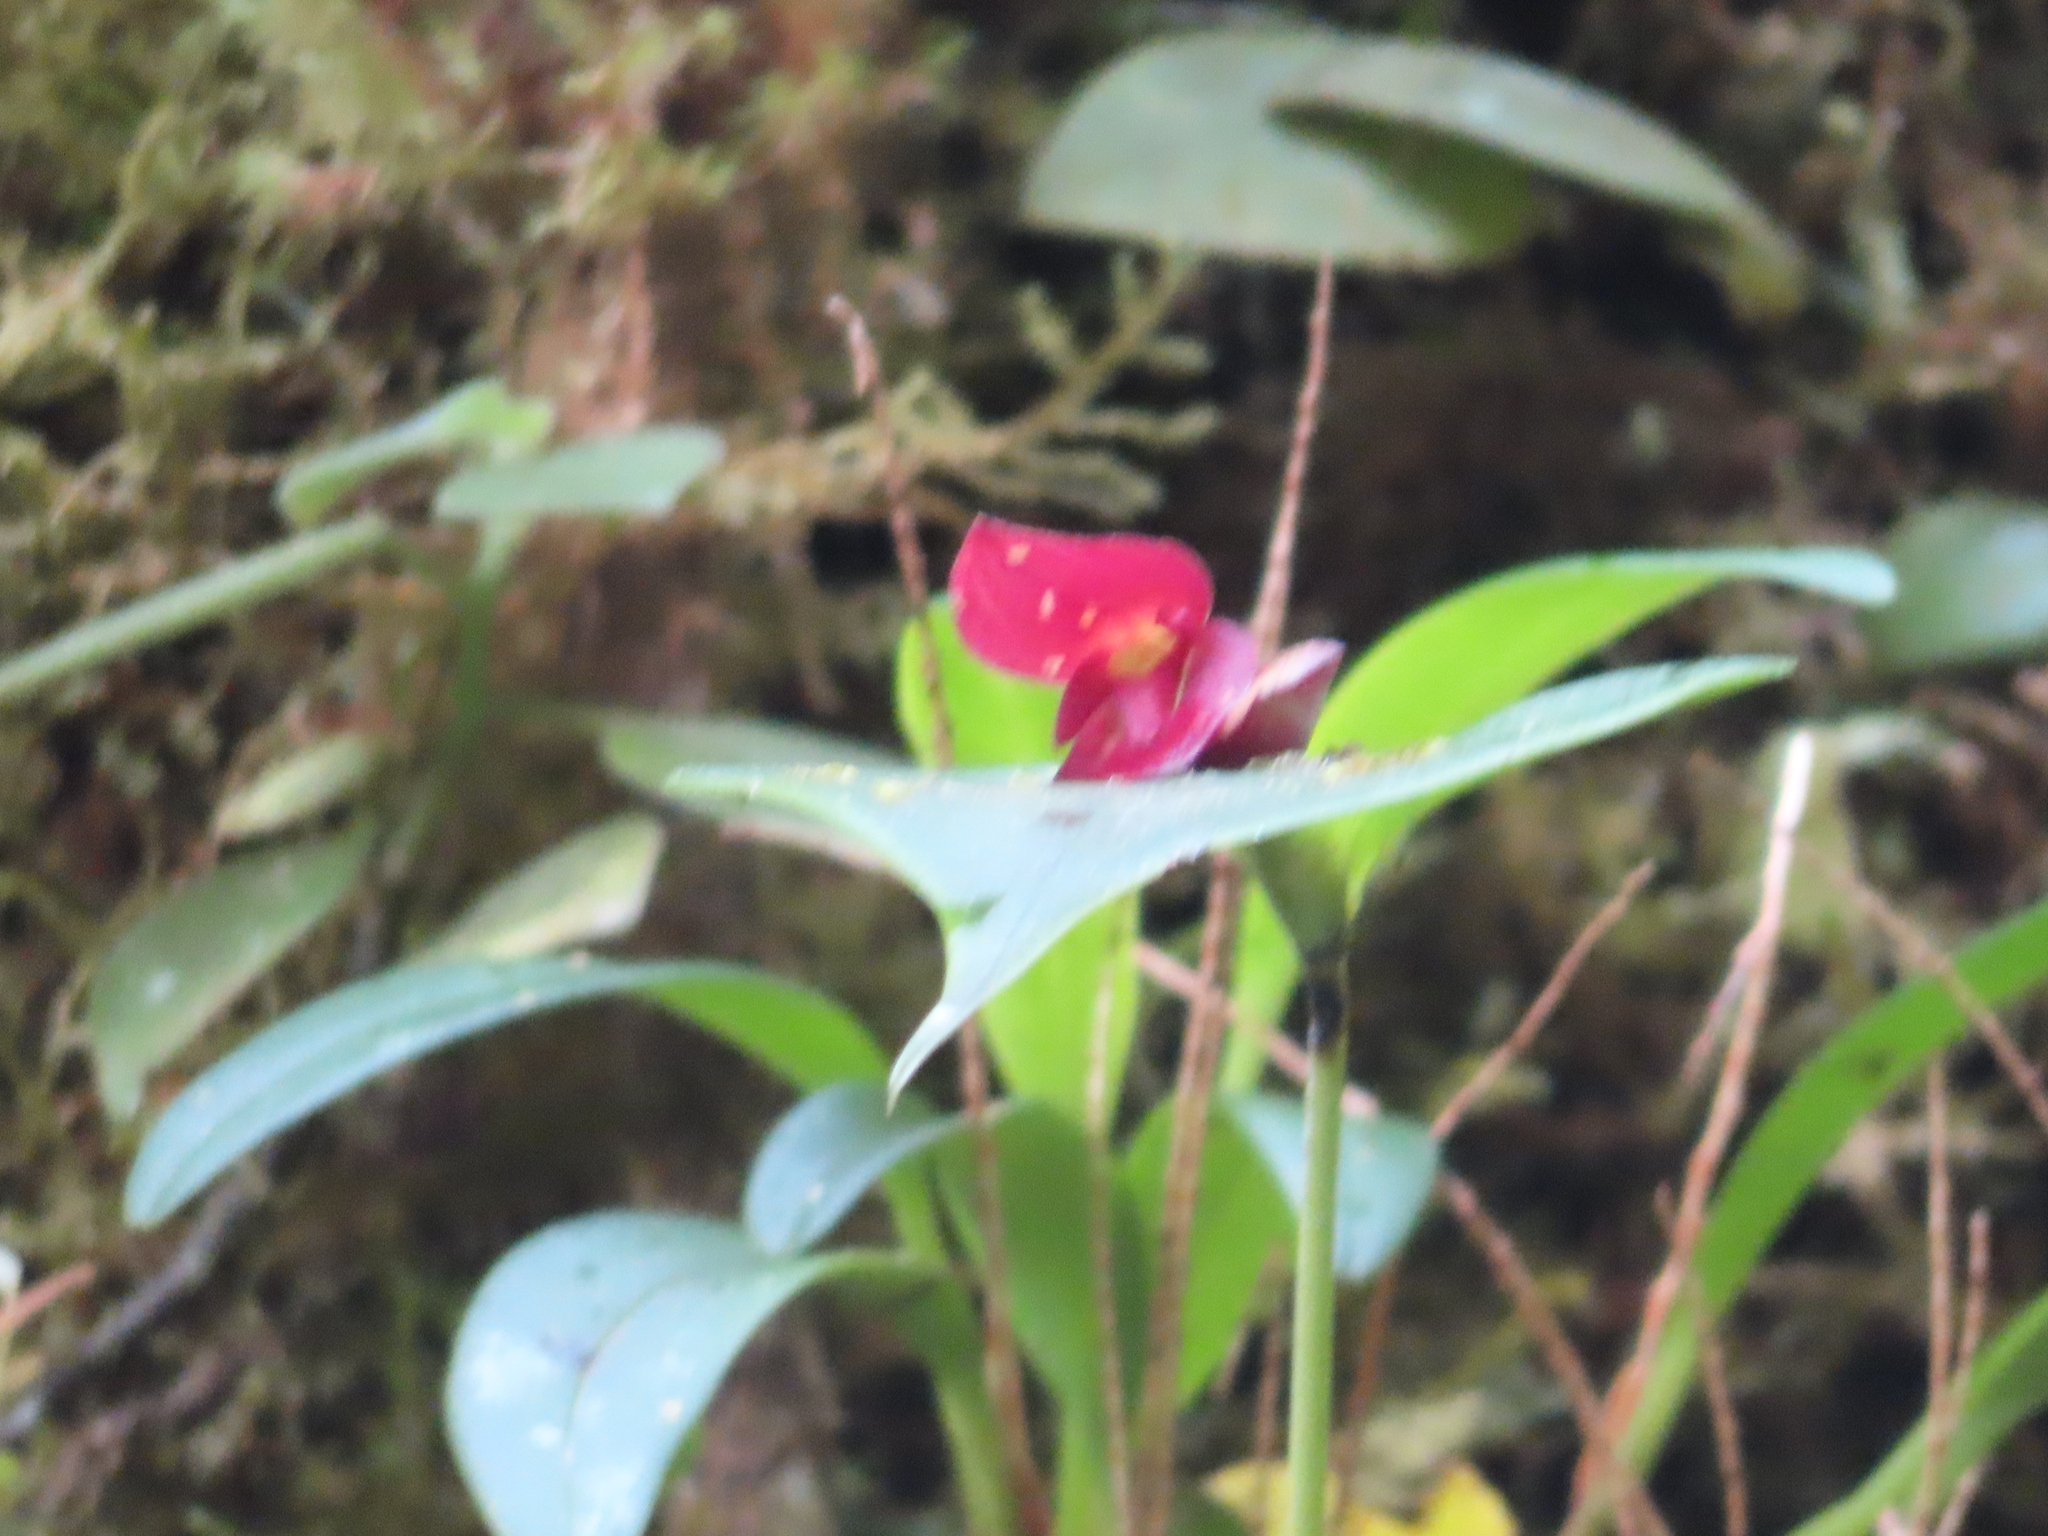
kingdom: Plantae
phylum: Tracheophyta
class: Liliopsida
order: Asparagales
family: Orchidaceae
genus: Pleurothallis
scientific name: Pleurothallis gonzaleziorum
